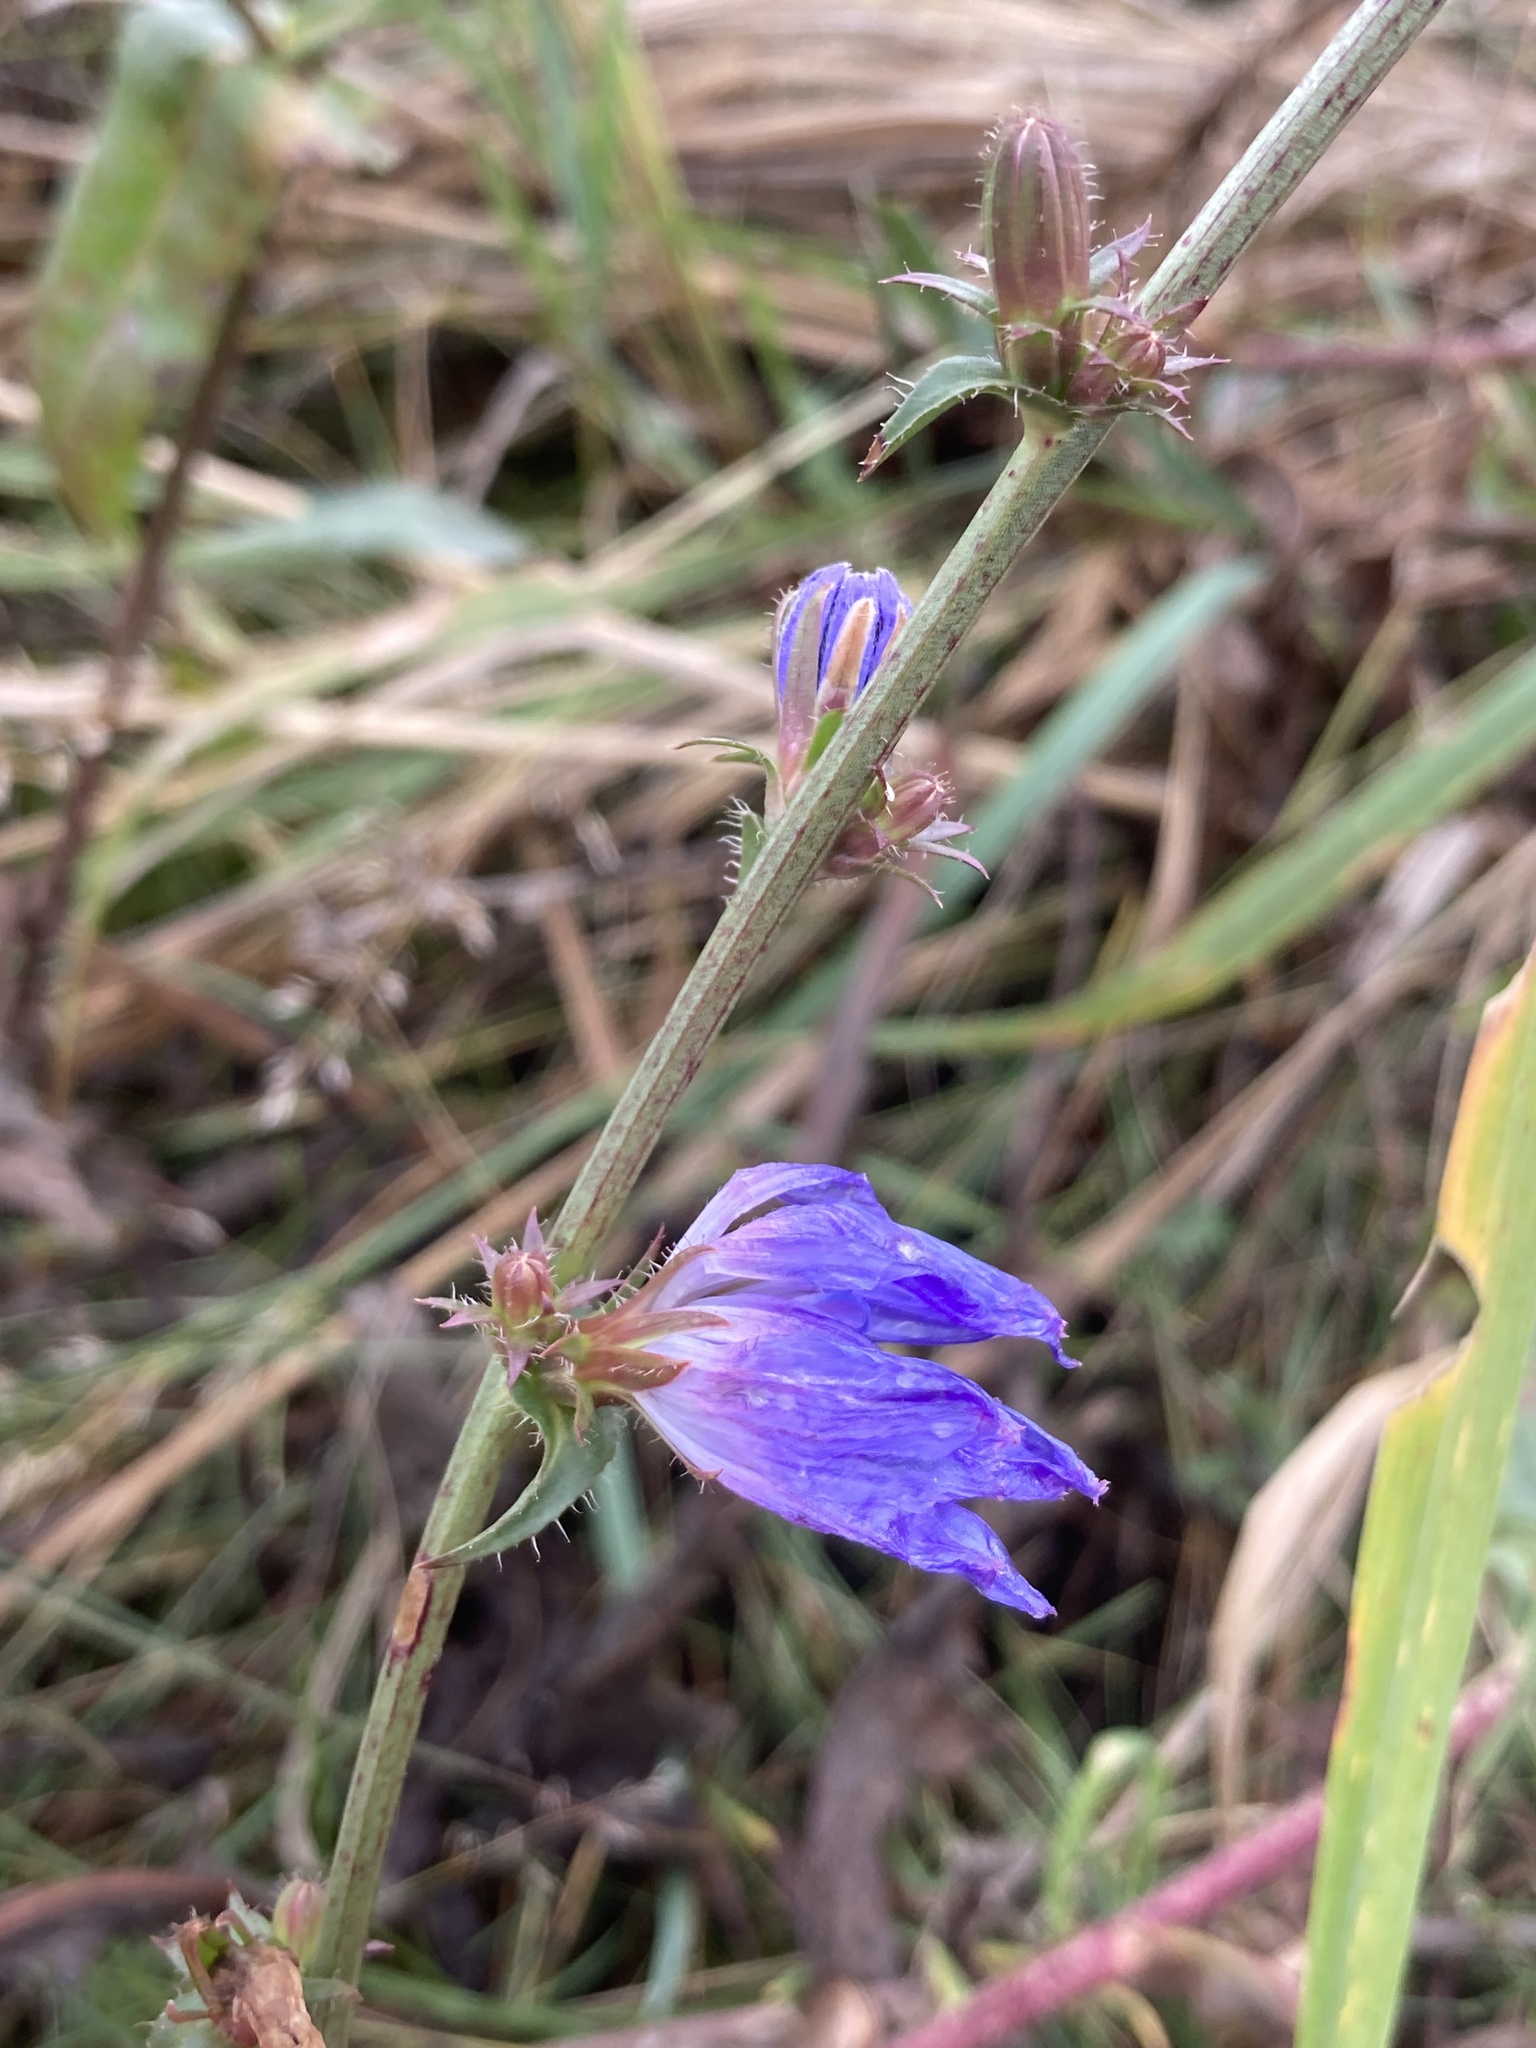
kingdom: Plantae
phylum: Tracheophyta
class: Magnoliopsida
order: Asterales
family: Asteraceae
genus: Cichorium
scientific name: Cichorium intybus
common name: Chicory
